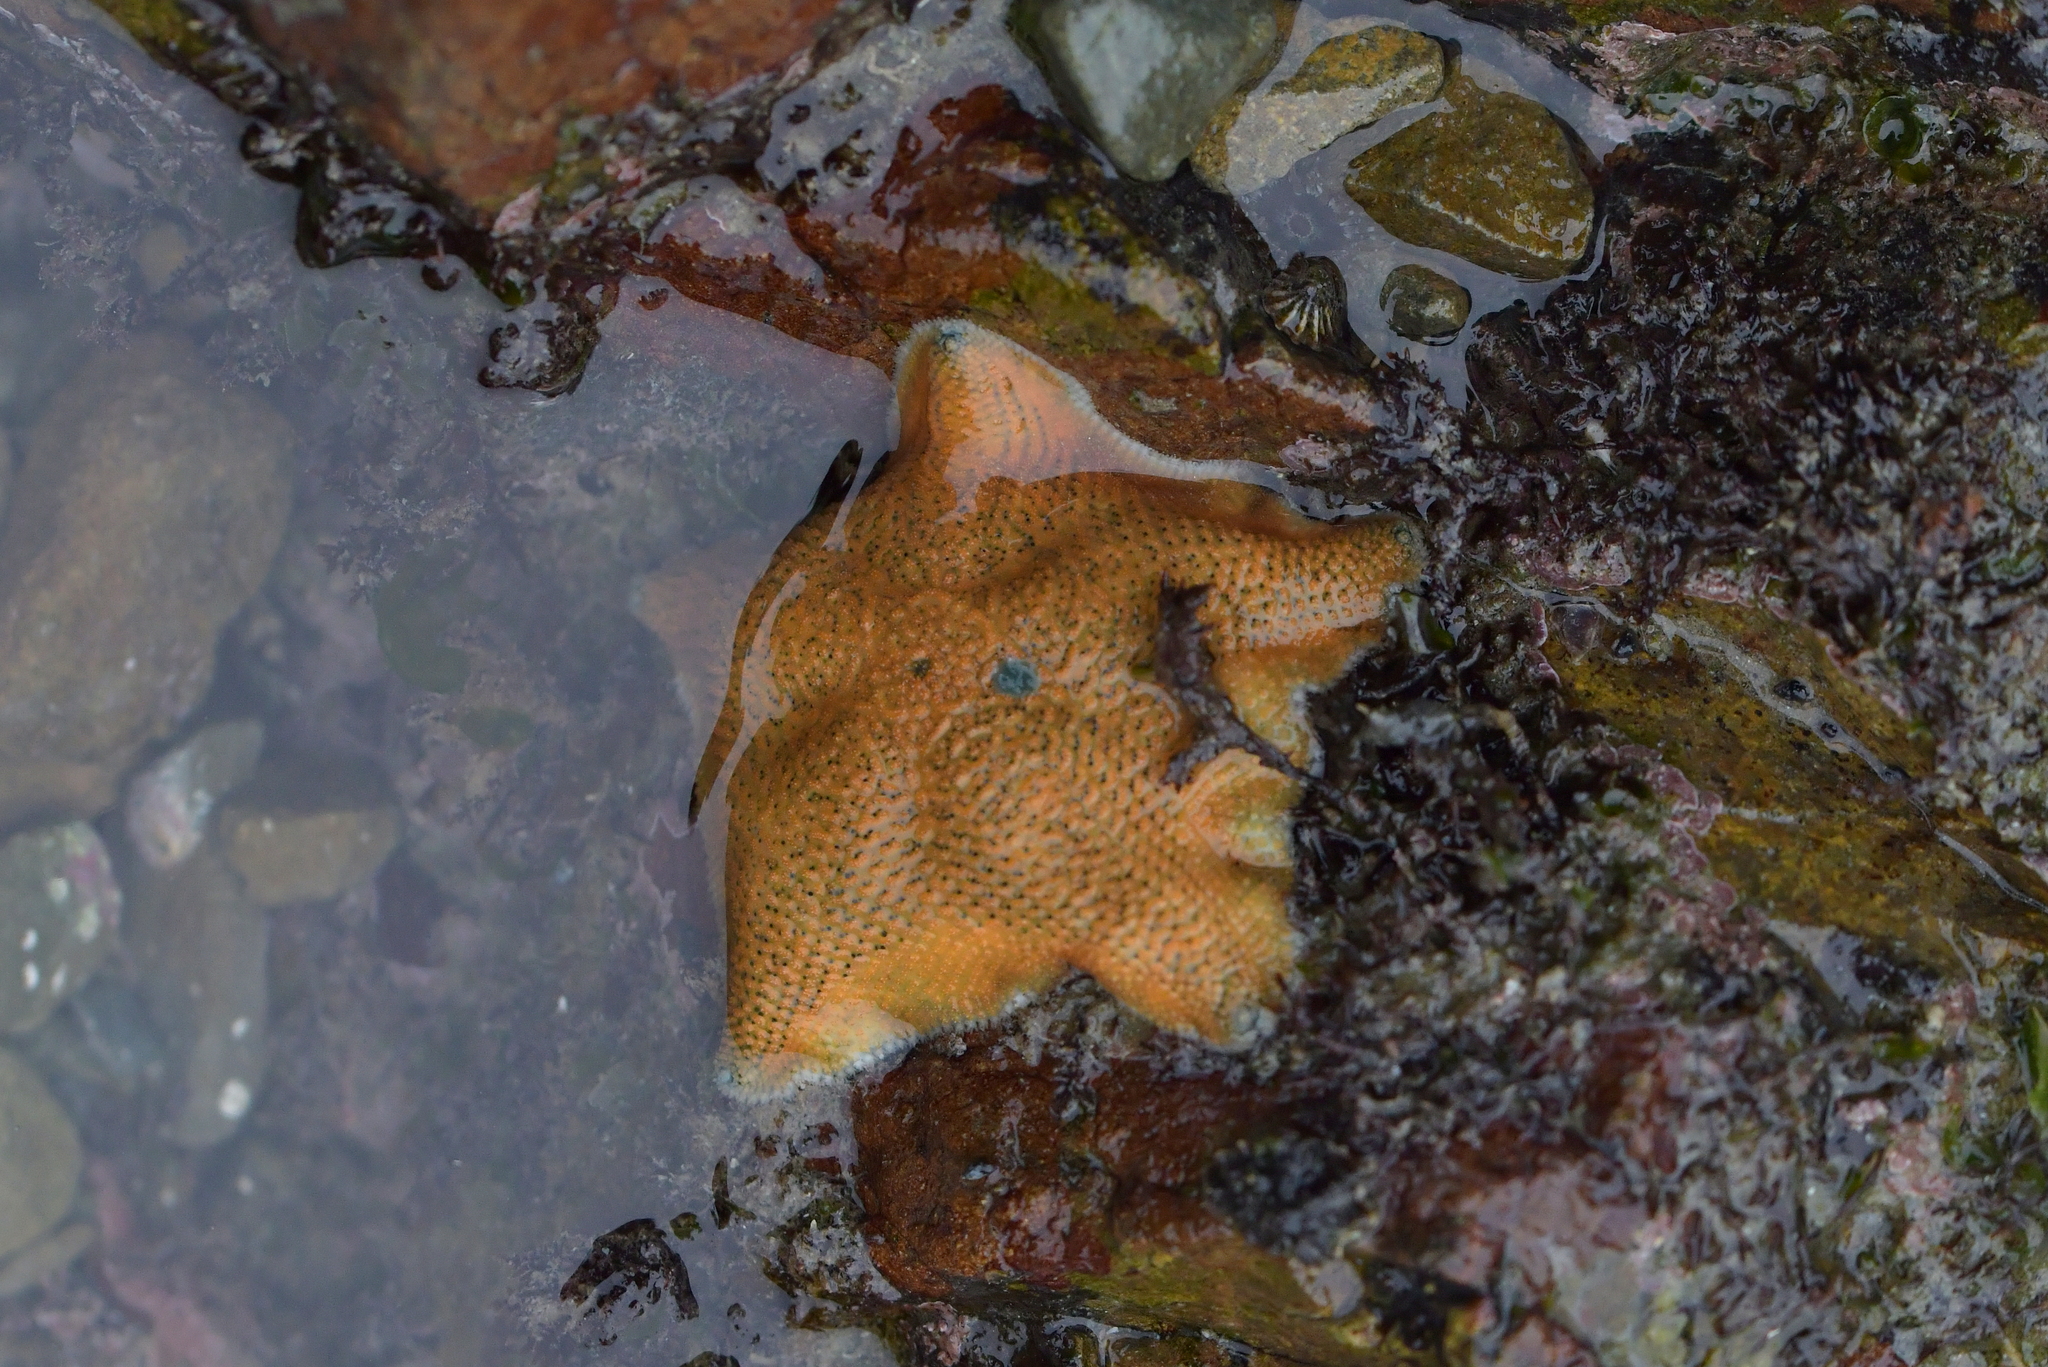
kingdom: Animalia
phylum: Echinodermata
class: Asteroidea
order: Valvatida
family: Asterinidae
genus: Patiriella
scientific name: Patiriella regularis
